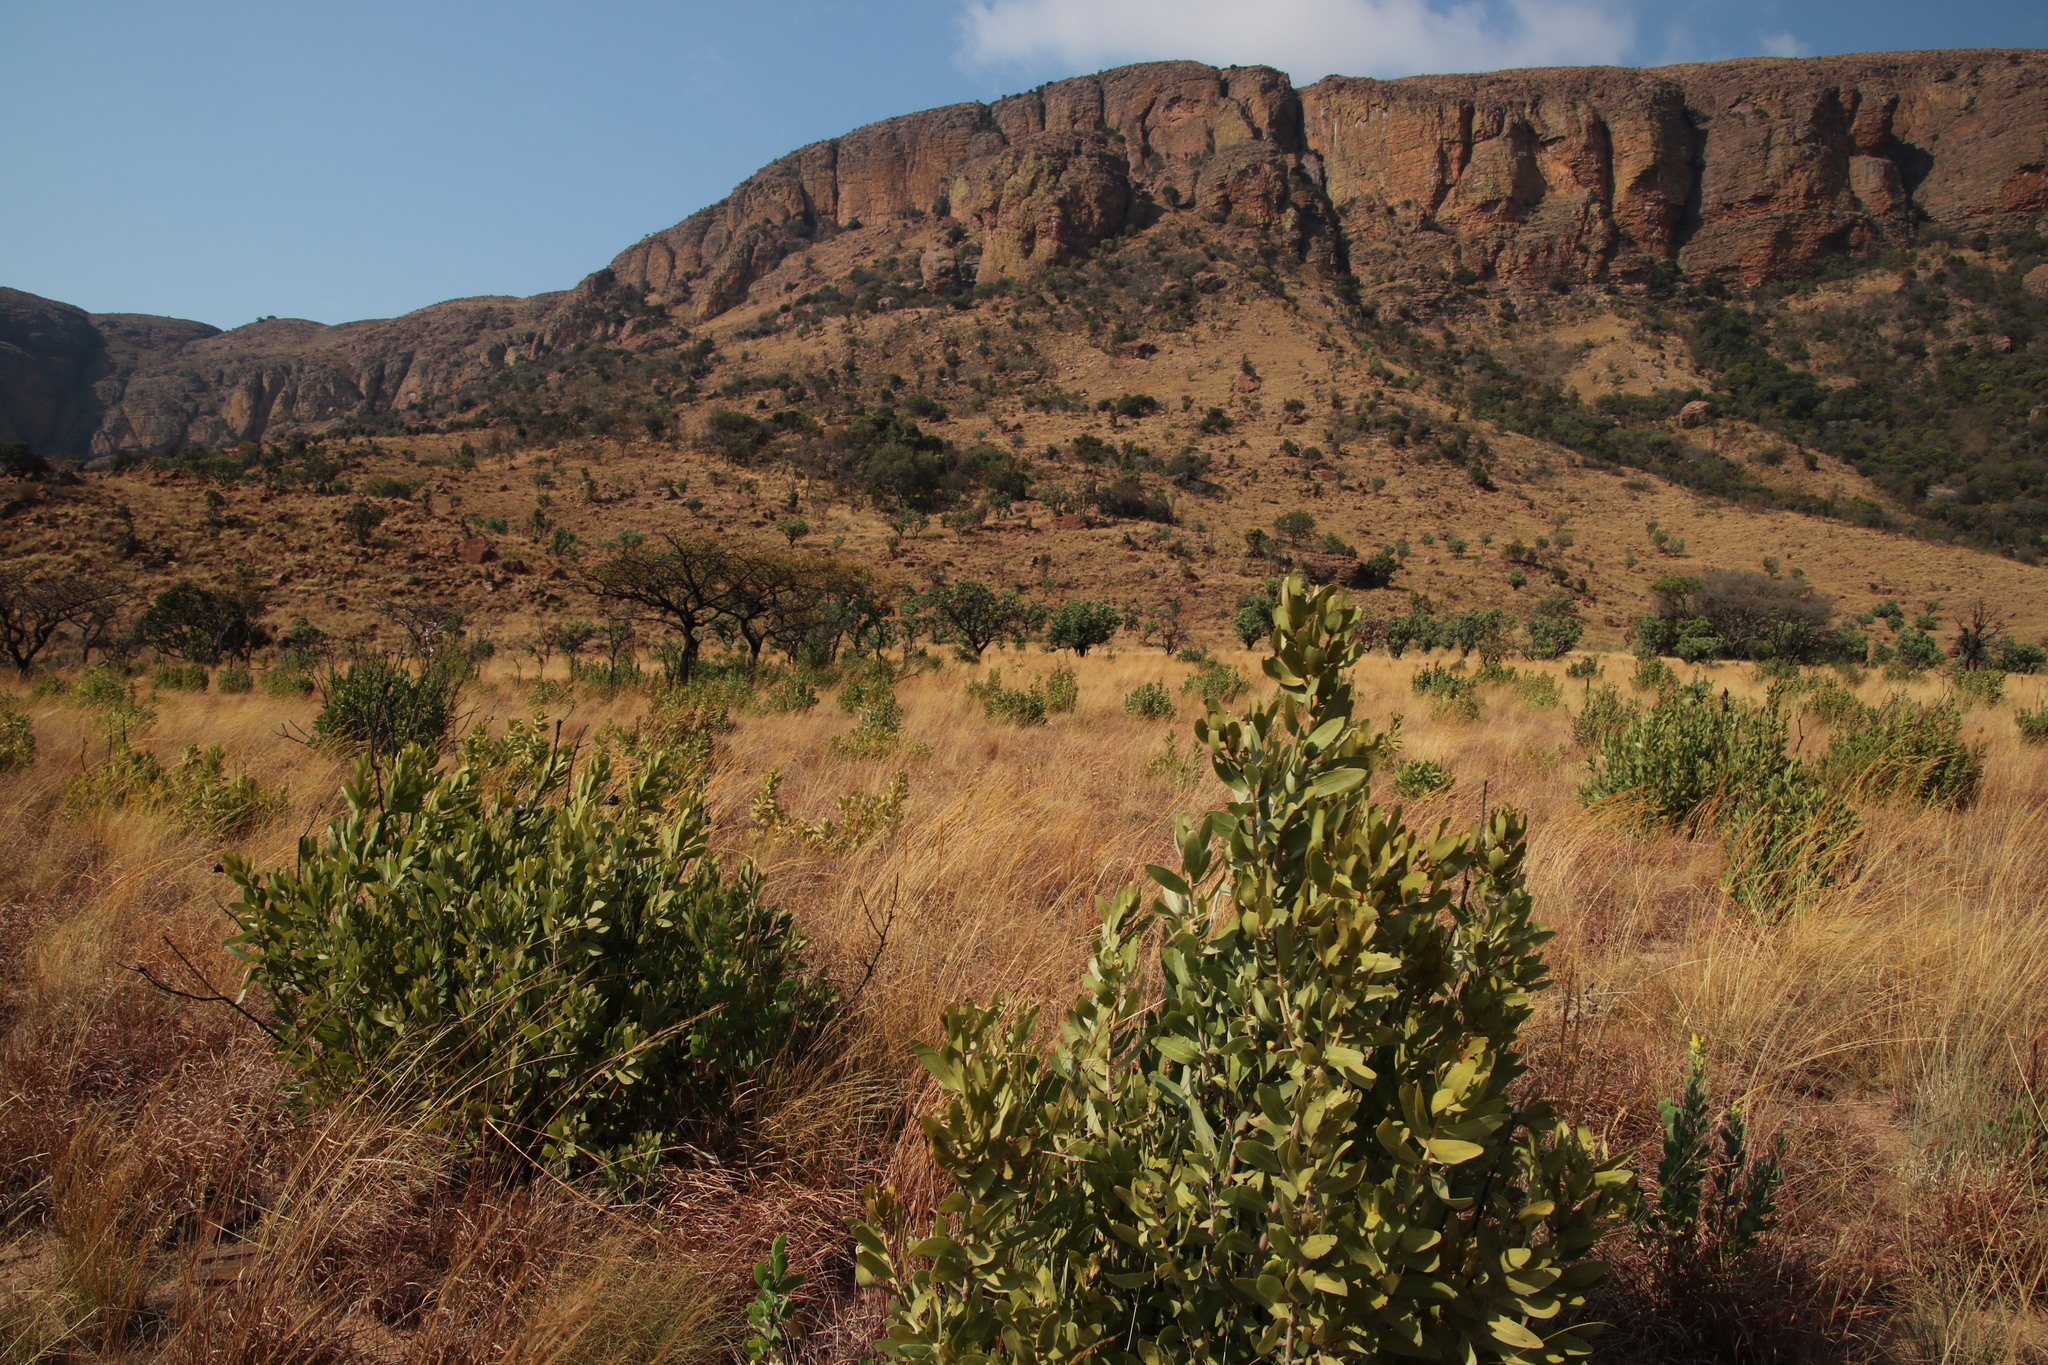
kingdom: Plantae
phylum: Tracheophyta
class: Magnoliopsida
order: Proteales
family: Proteaceae
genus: Protea
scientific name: Protea gaguedi
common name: African protea
